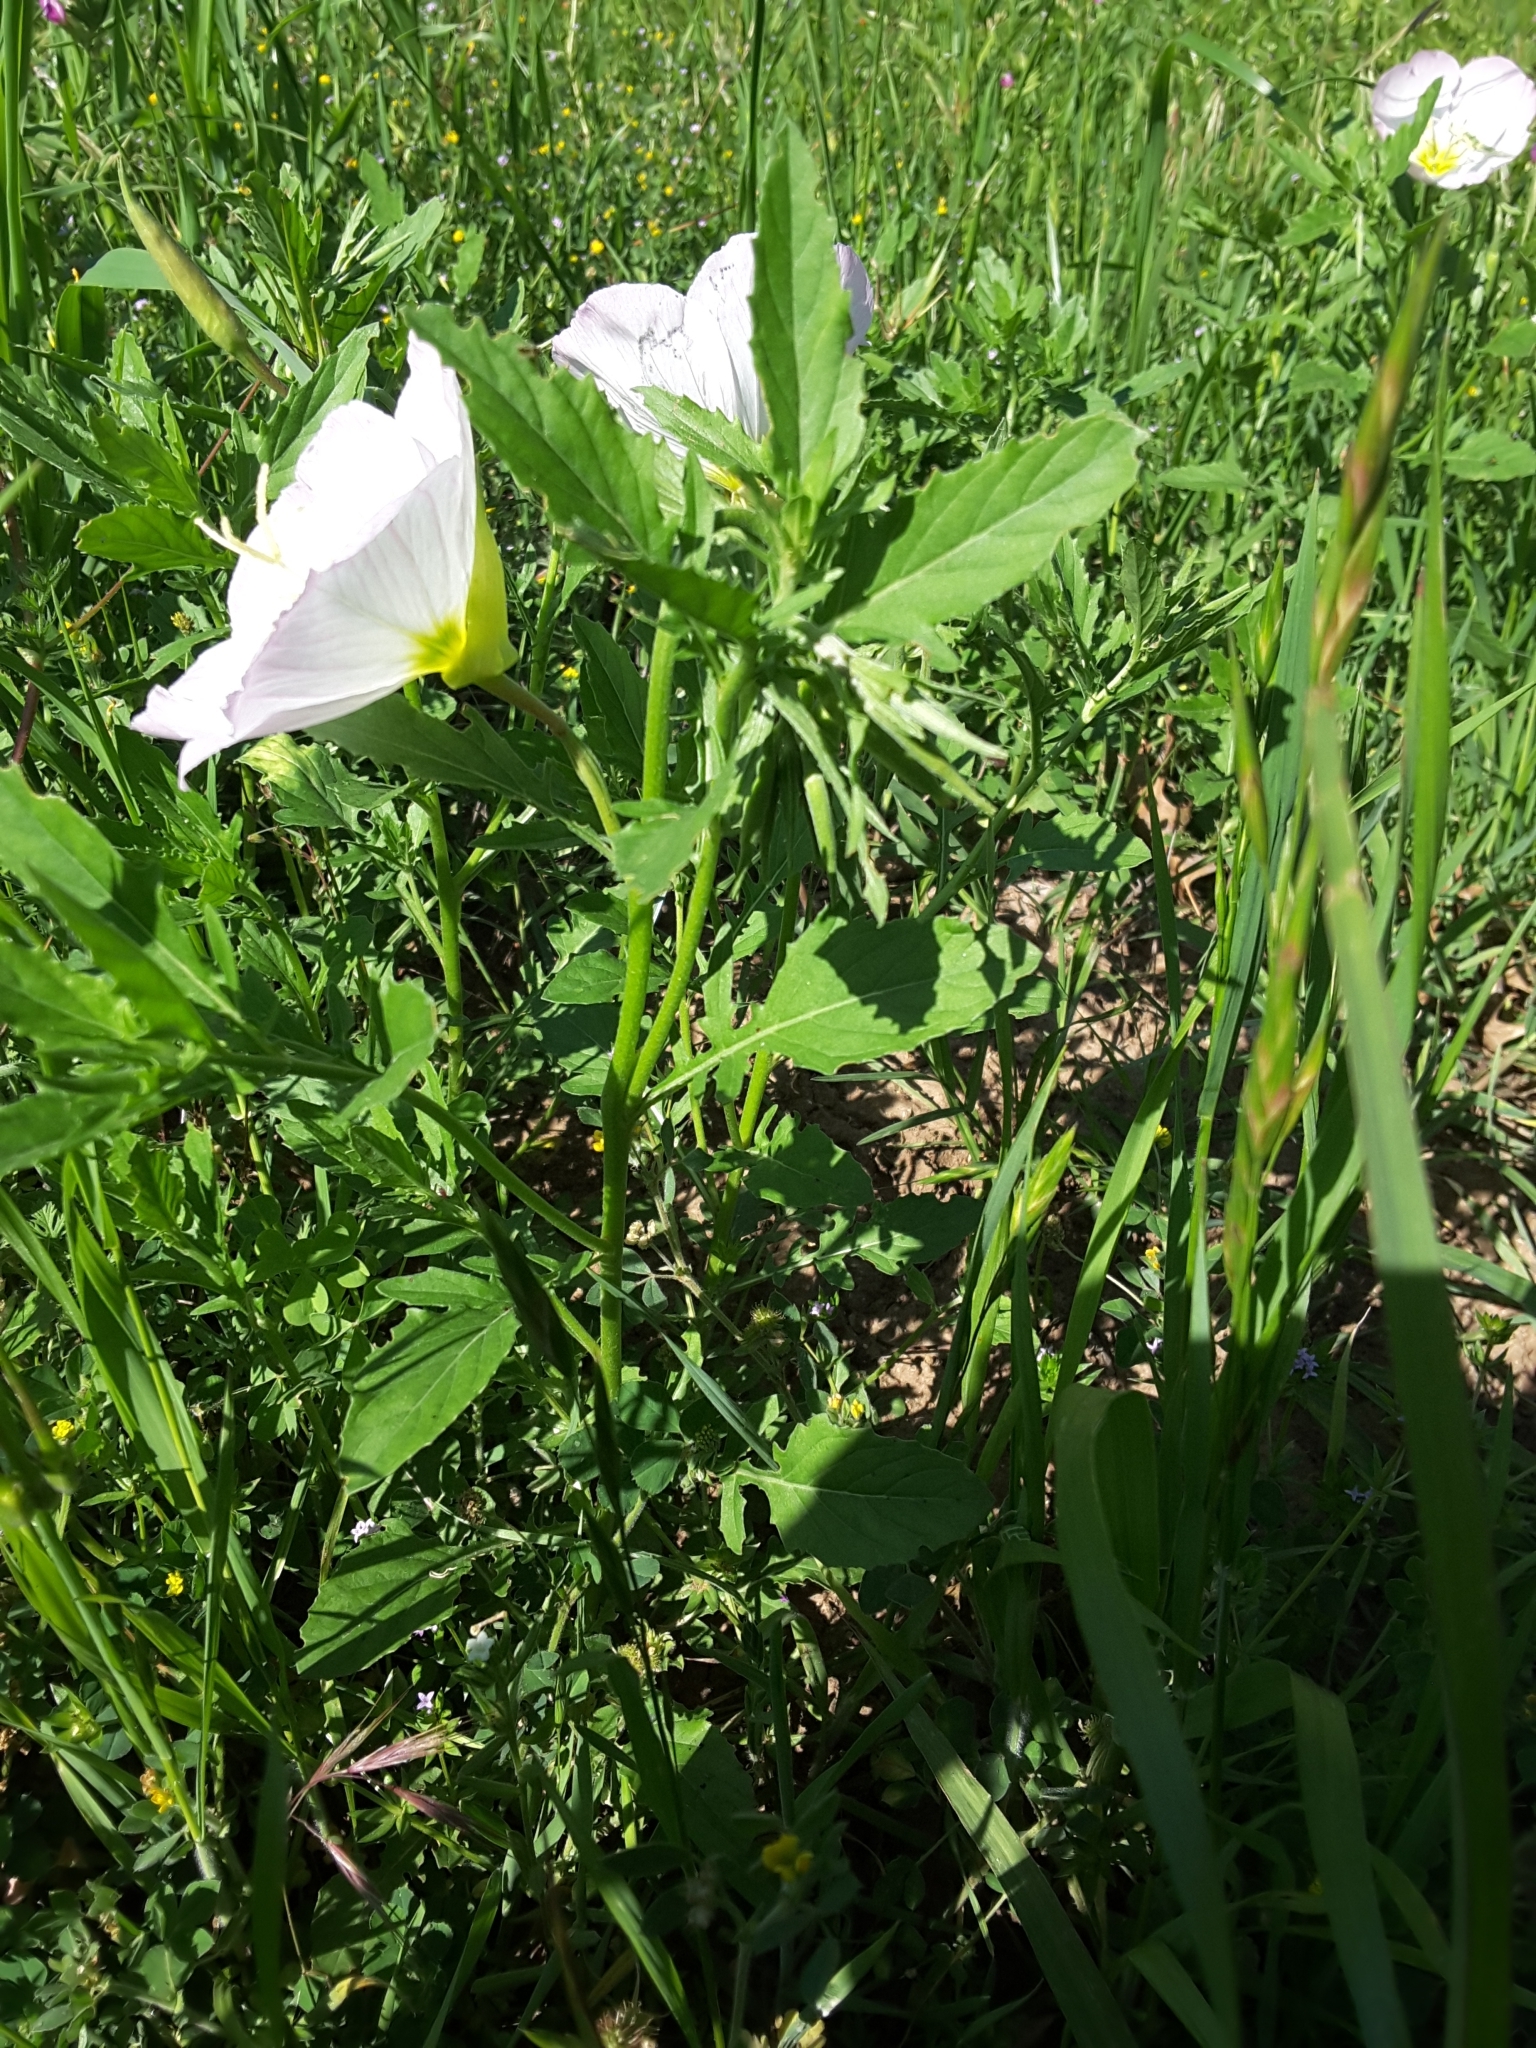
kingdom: Plantae
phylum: Tracheophyta
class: Magnoliopsida
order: Myrtales
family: Onagraceae
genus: Oenothera
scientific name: Oenothera speciosa
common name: White evening-primrose
